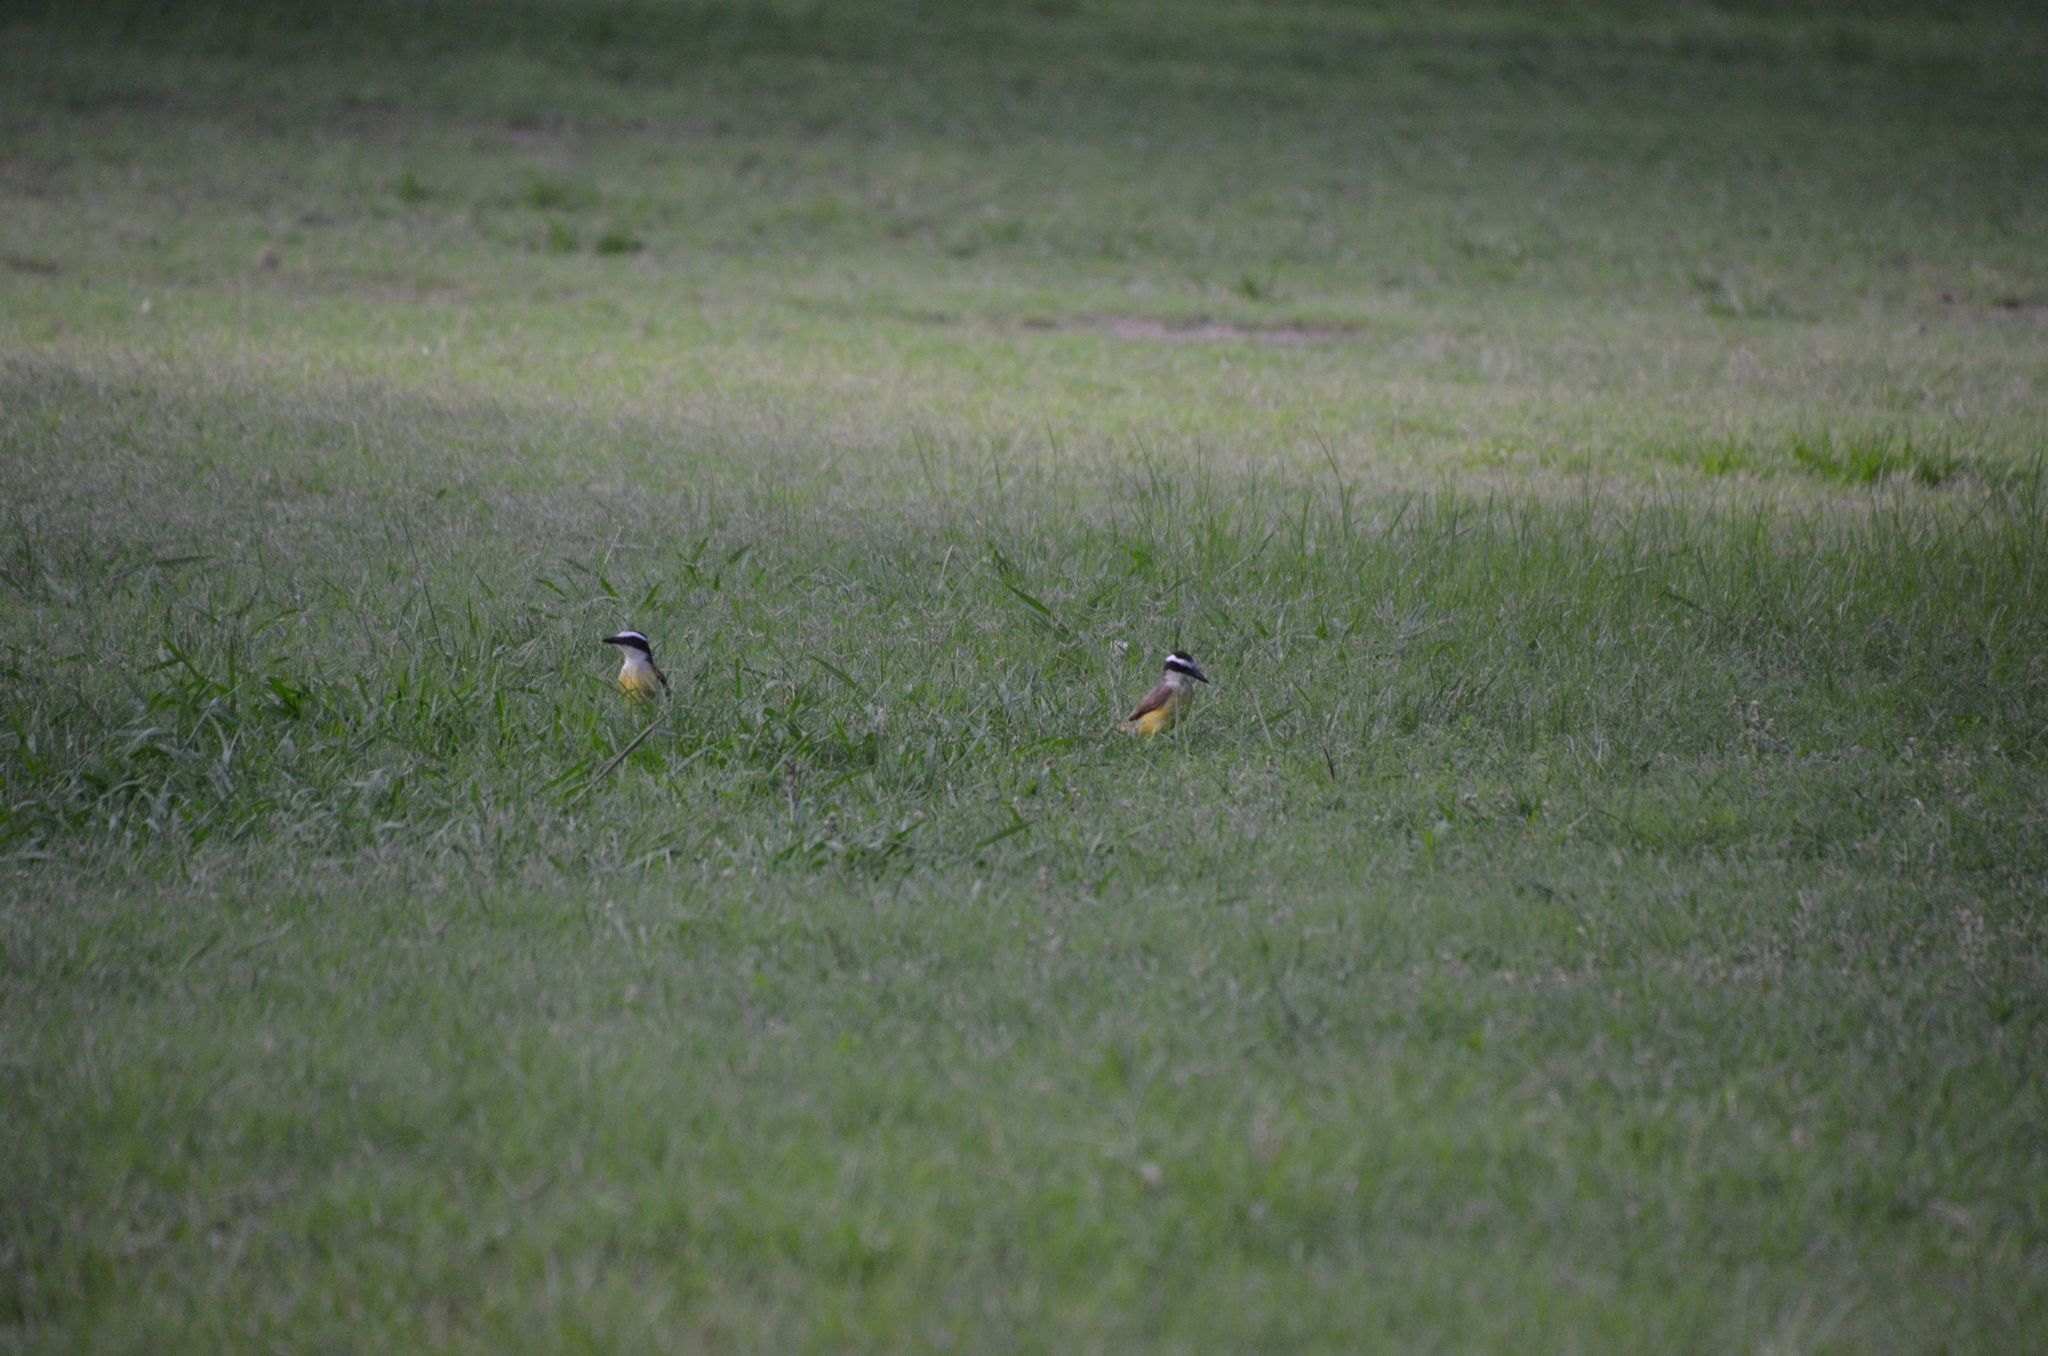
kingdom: Animalia
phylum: Chordata
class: Aves
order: Passeriformes
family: Tyrannidae
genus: Pitangus
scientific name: Pitangus sulphuratus
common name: Great kiskadee
